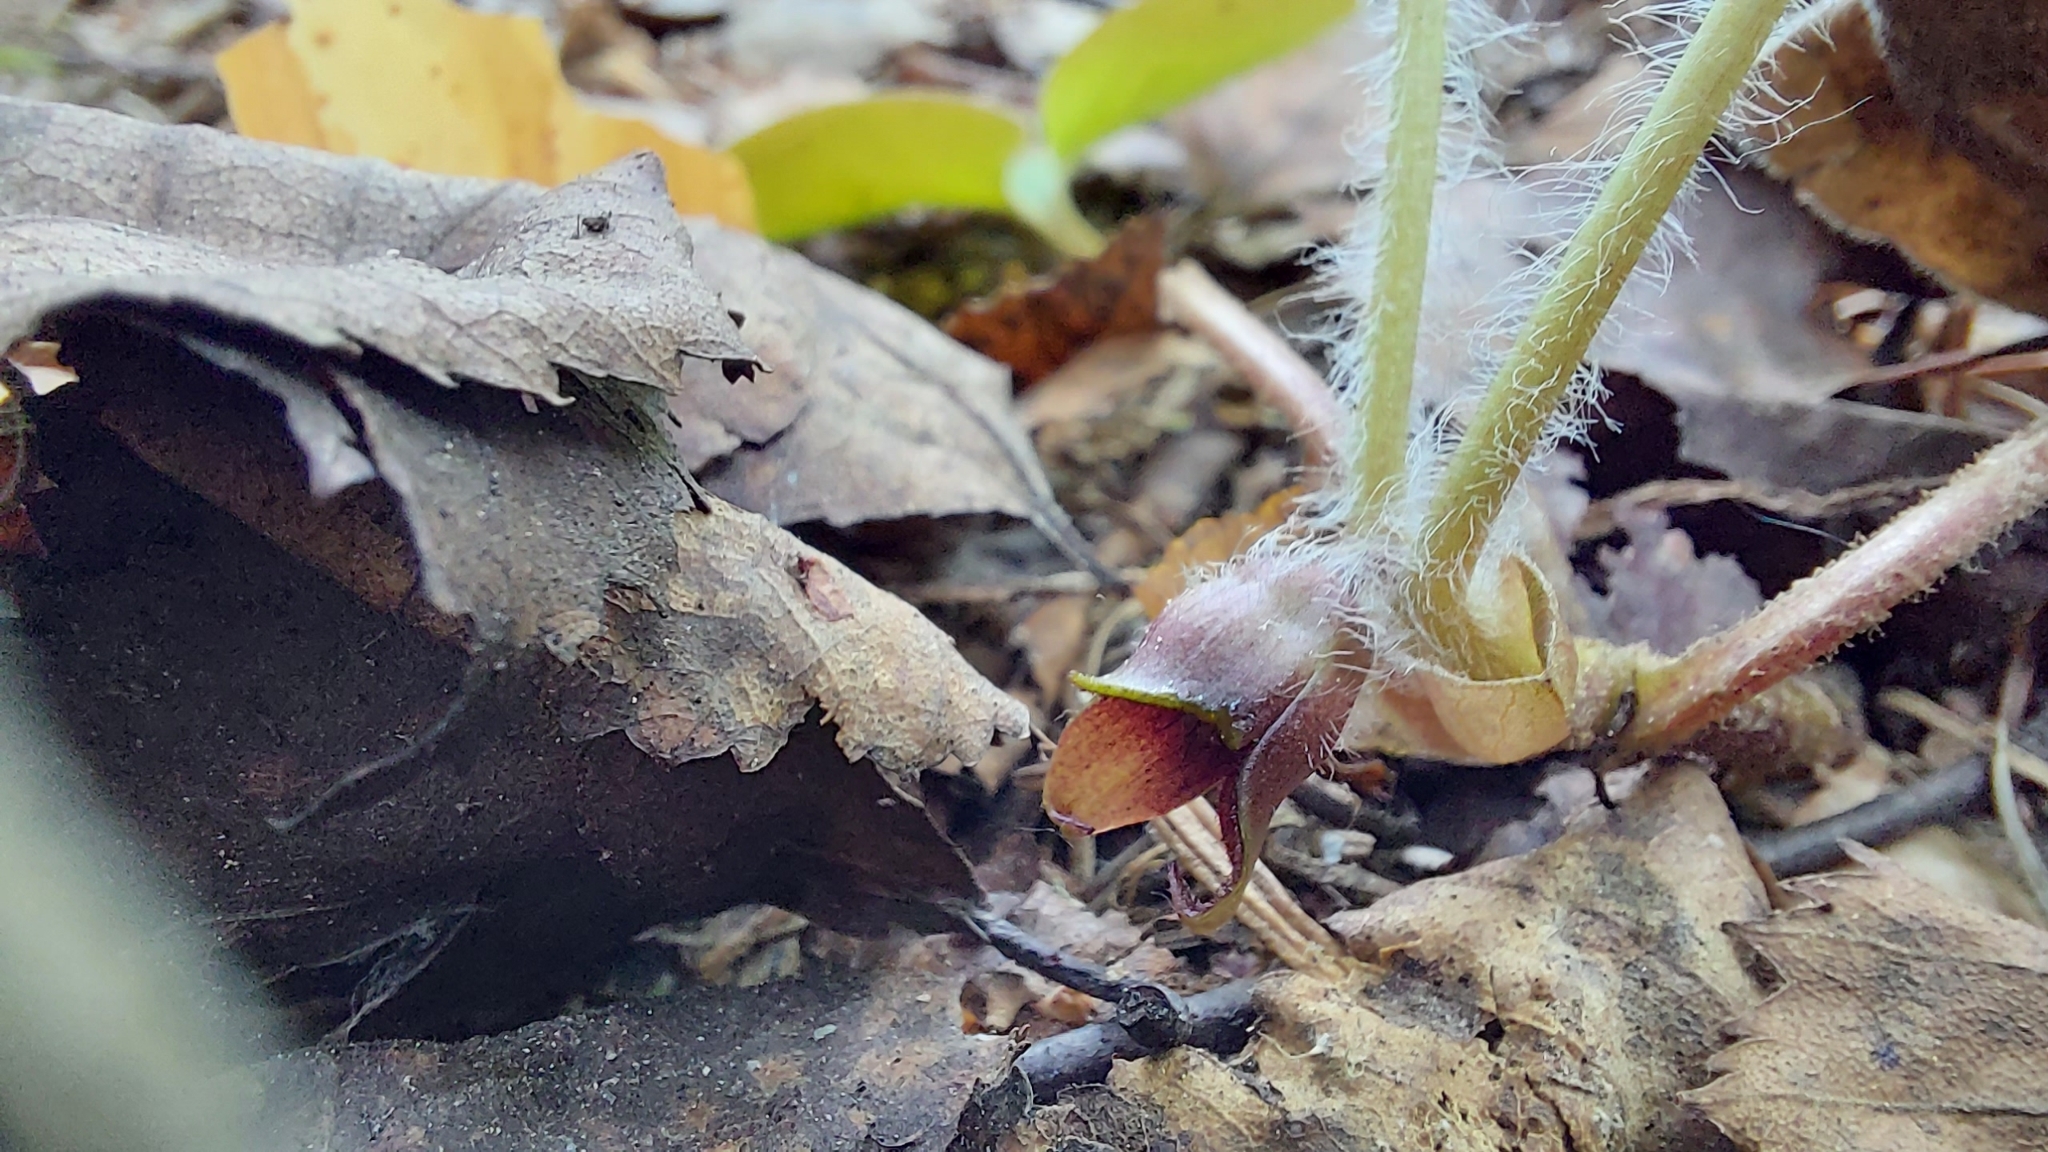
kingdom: Plantae
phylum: Tracheophyta
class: Magnoliopsida
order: Piperales
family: Aristolochiaceae
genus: Asarum
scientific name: Asarum europaeum
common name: Asarabacca
